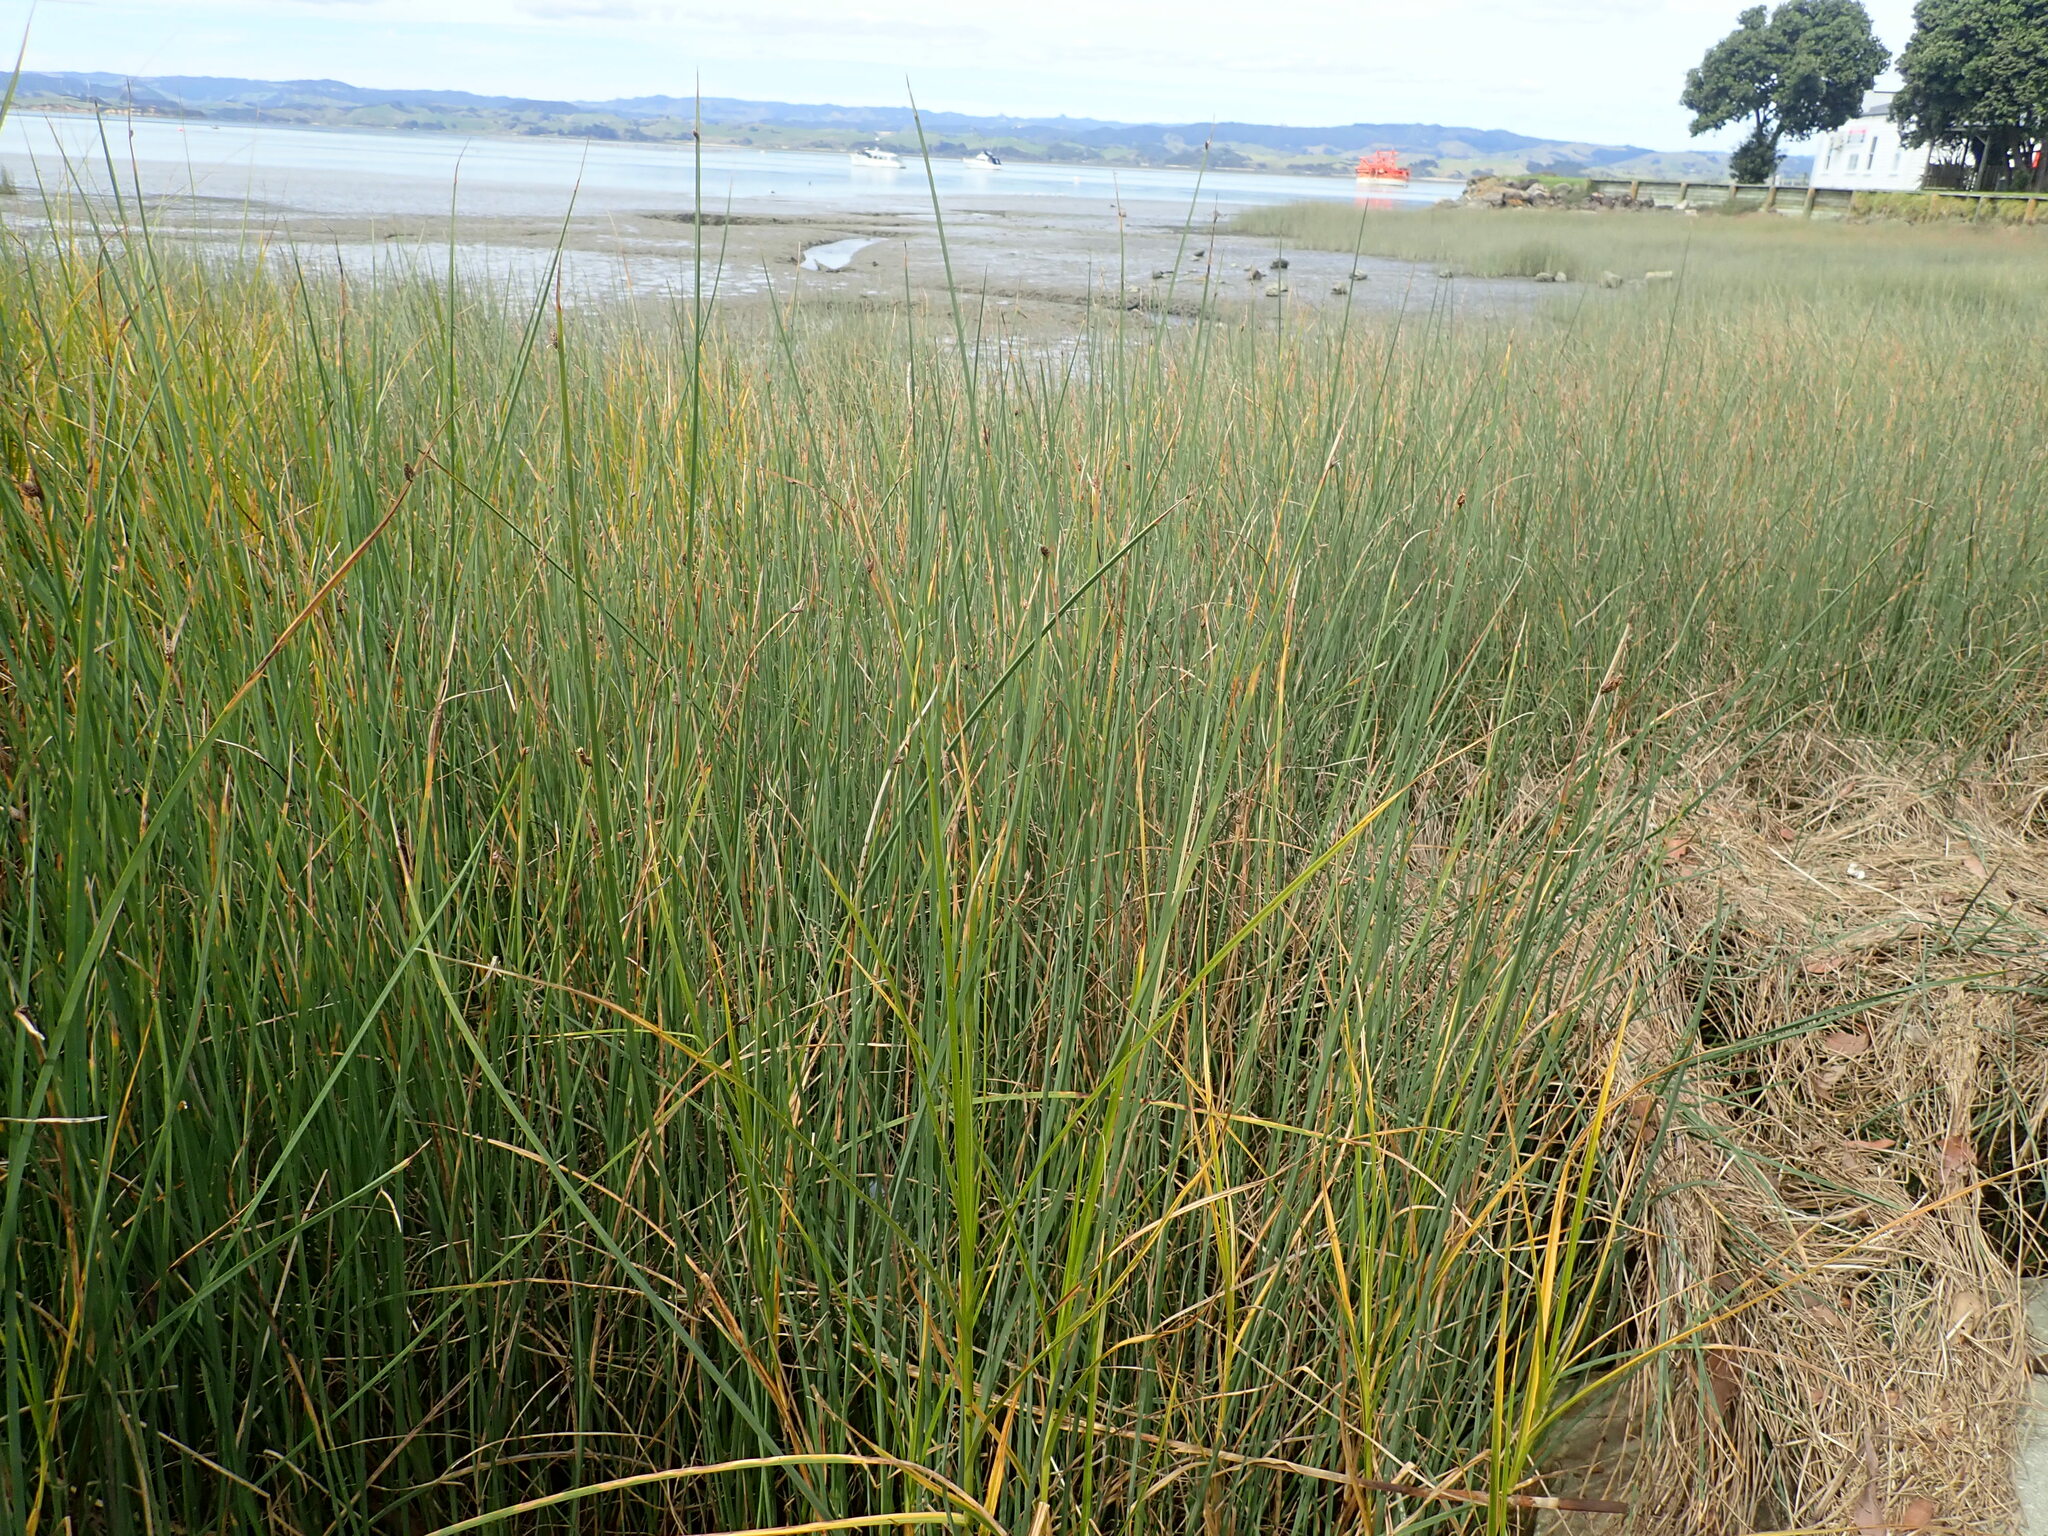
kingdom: Plantae
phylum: Tracheophyta
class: Liliopsida
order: Poales
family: Cyperaceae
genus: Schoenoplectus
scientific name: Schoenoplectus pungens
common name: Sharp club-rush
